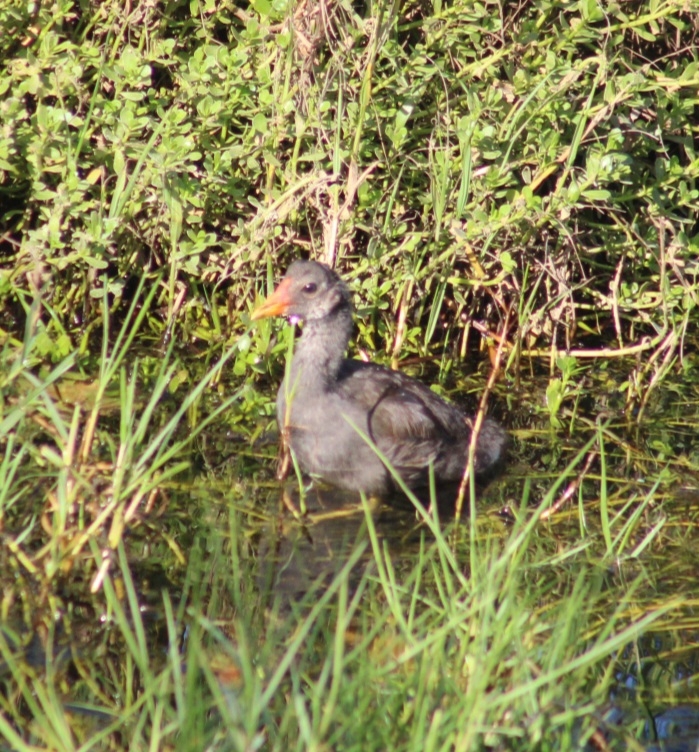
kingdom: Animalia
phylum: Chordata
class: Aves
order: Gruiformes
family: Rallidae
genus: Gallinula
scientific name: Gallinula chloropus
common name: Common moorhen
